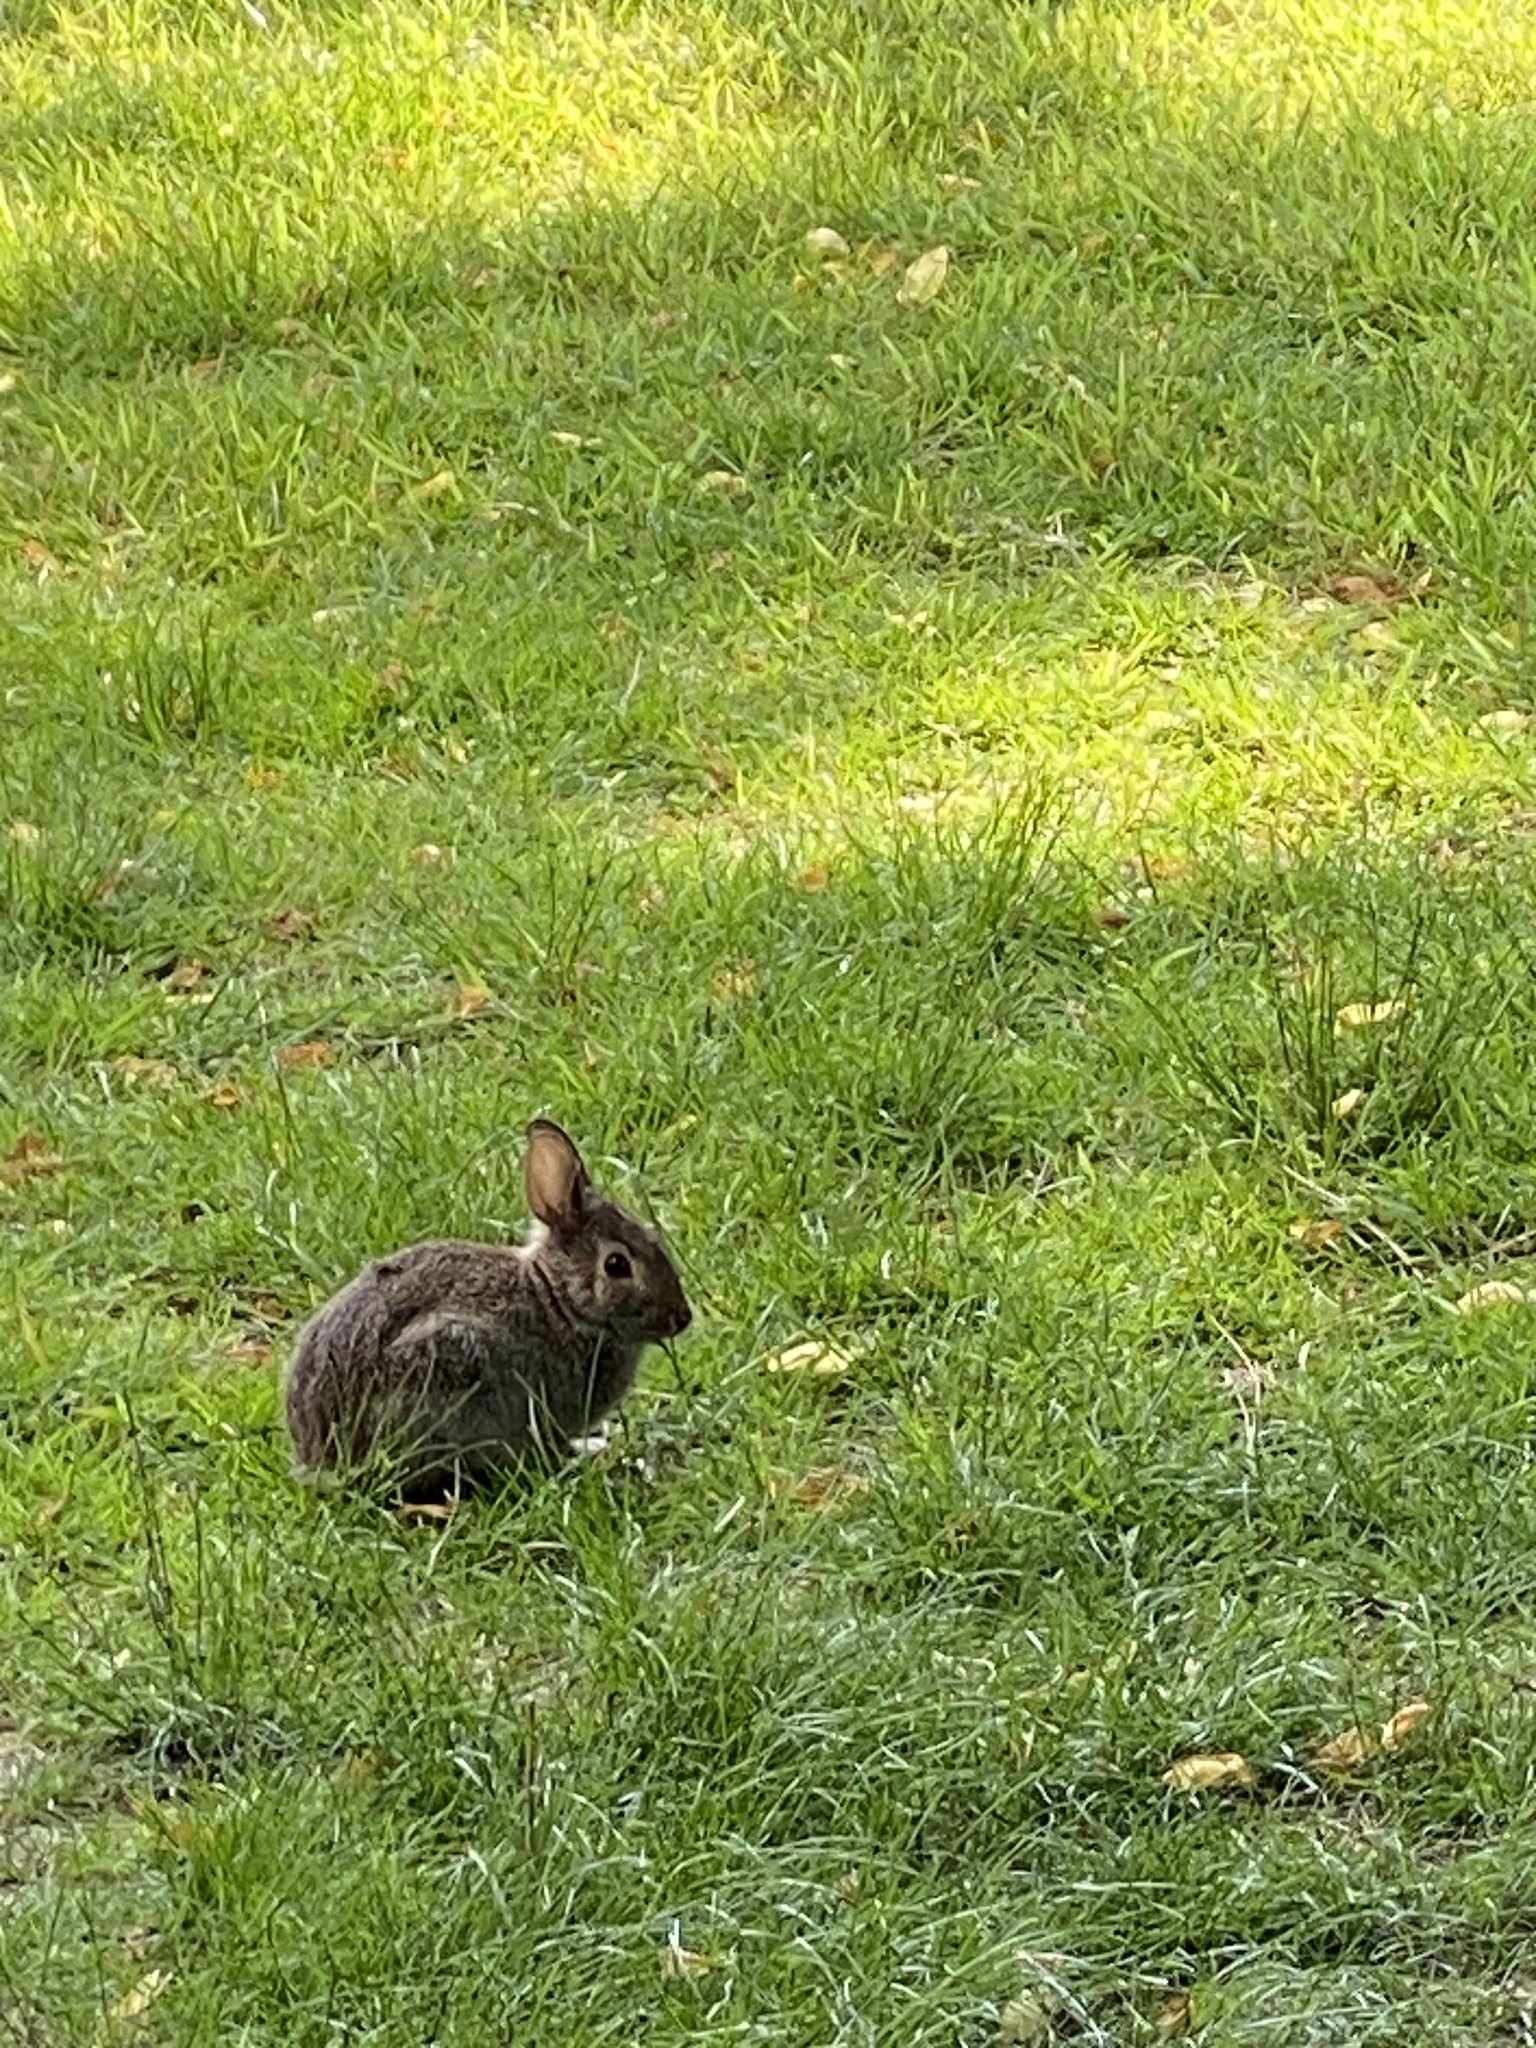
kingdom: Animalia
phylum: Chordata
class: Mammalia
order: Lagomorpha
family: Leporidae
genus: Sylvilagus
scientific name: Sylvilagus floridanus
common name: Eastern cottontail
